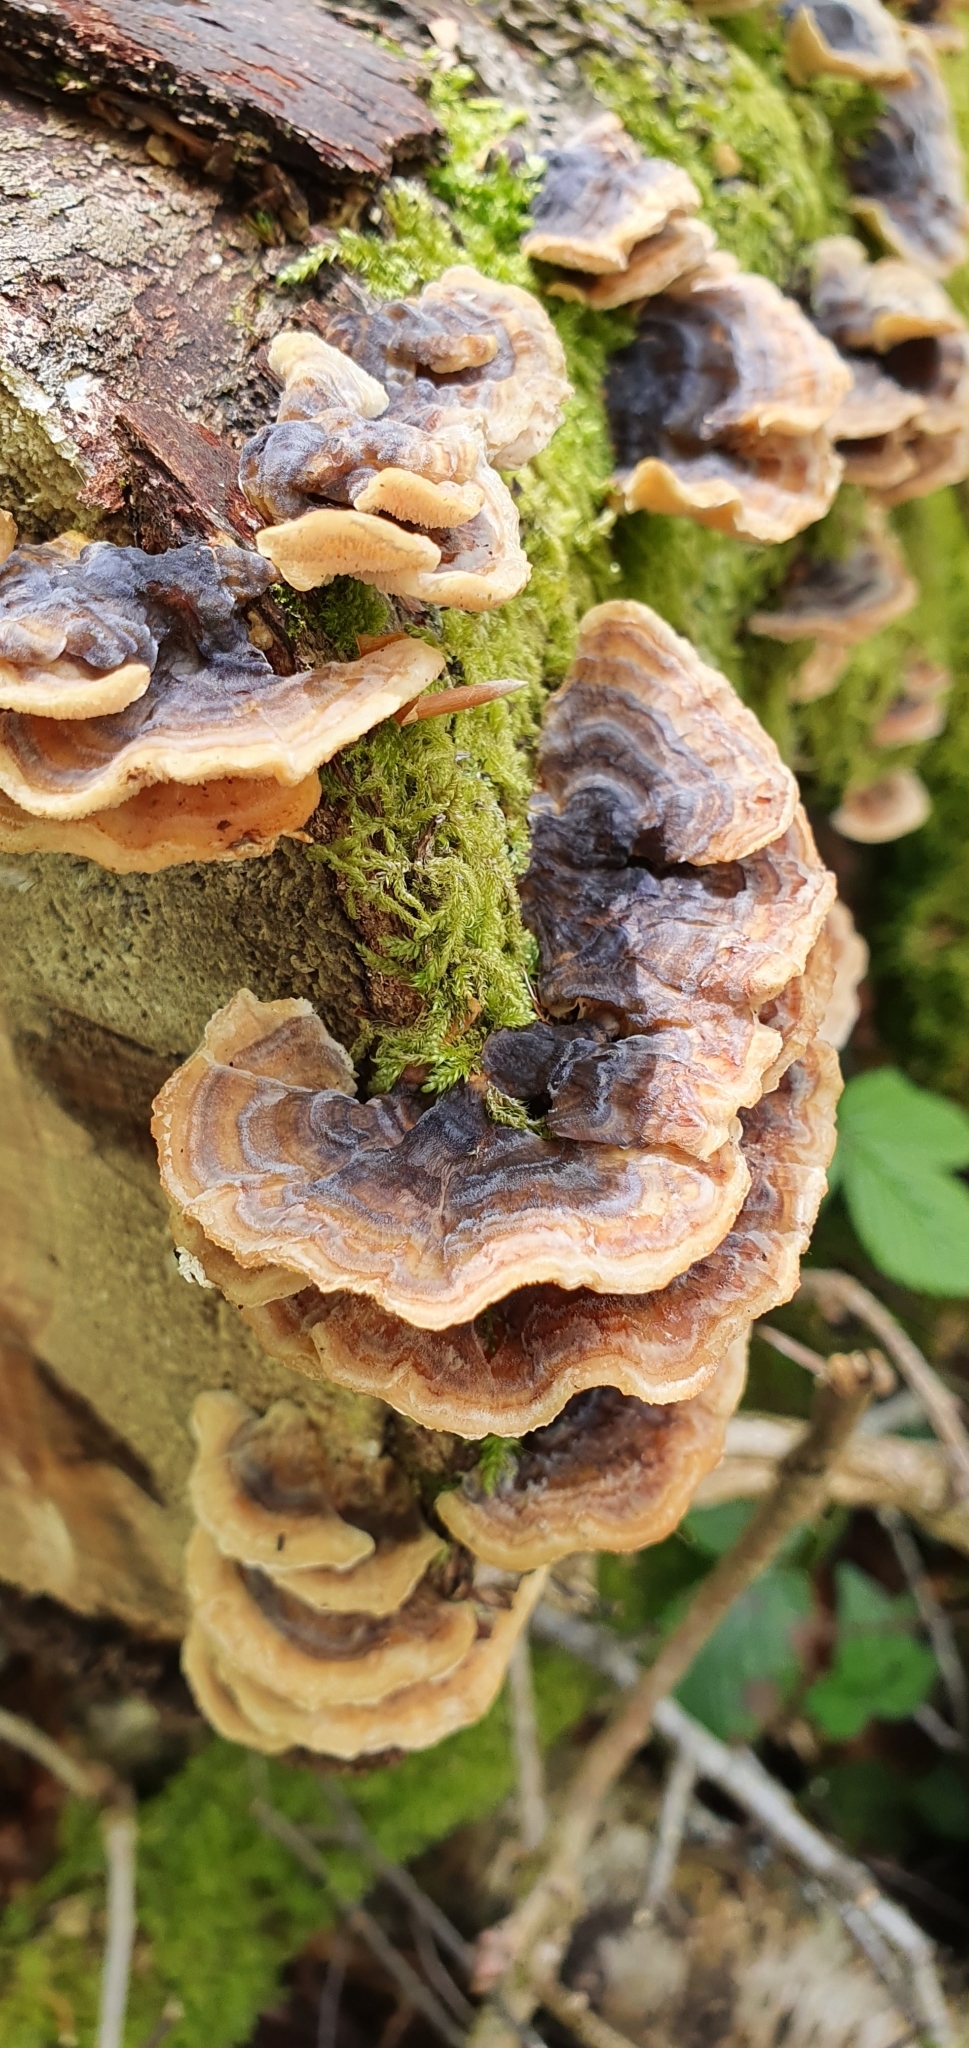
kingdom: Fungi
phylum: Basidiomycota
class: Agaricomycetes
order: Polyporales
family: Polyporaceae
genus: Trametes
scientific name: Trametes versicolor
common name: Turkeytail
